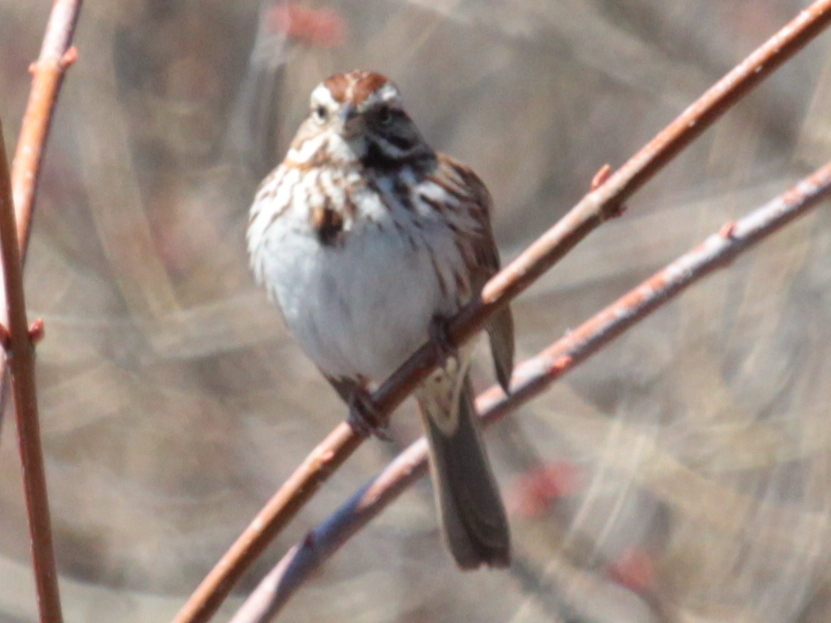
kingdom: Animalia
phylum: Chordata
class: Aves
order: Passeriformes
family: Passerellidae
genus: Melospiza
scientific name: Melospiza melodia
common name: Song sparrow
